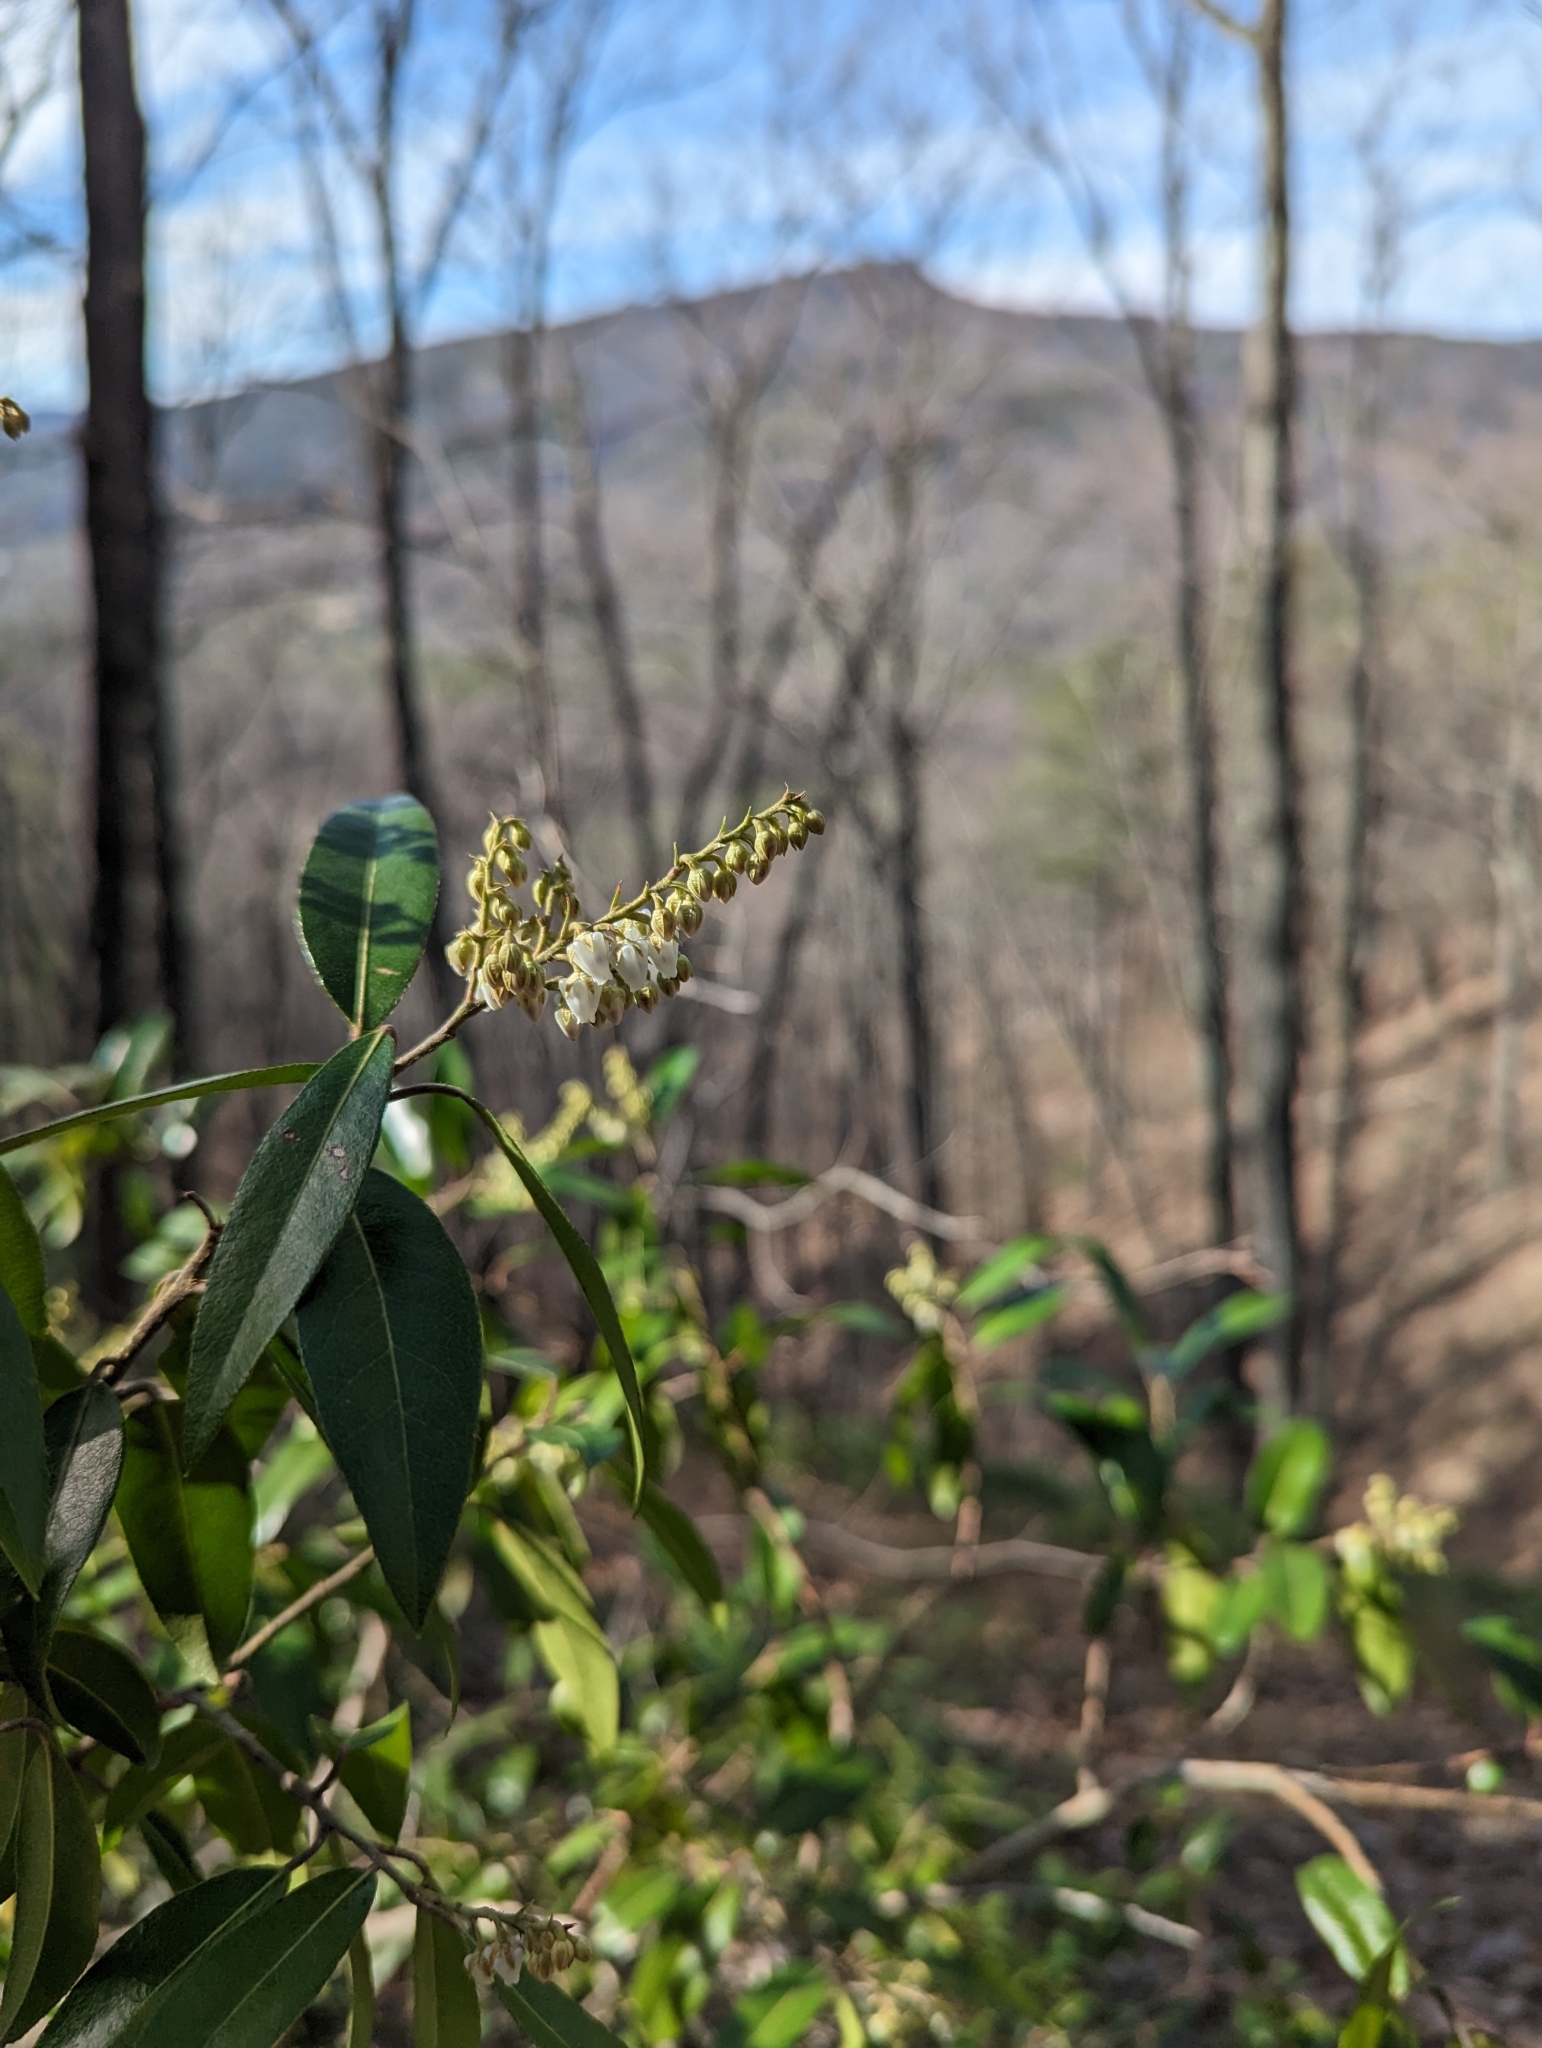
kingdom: Plantae
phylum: Tracheophyta
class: Magnoliopsida
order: Ericales
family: Ericaceae
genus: Pieris
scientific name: Pieris floribunda
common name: Flutterbush
